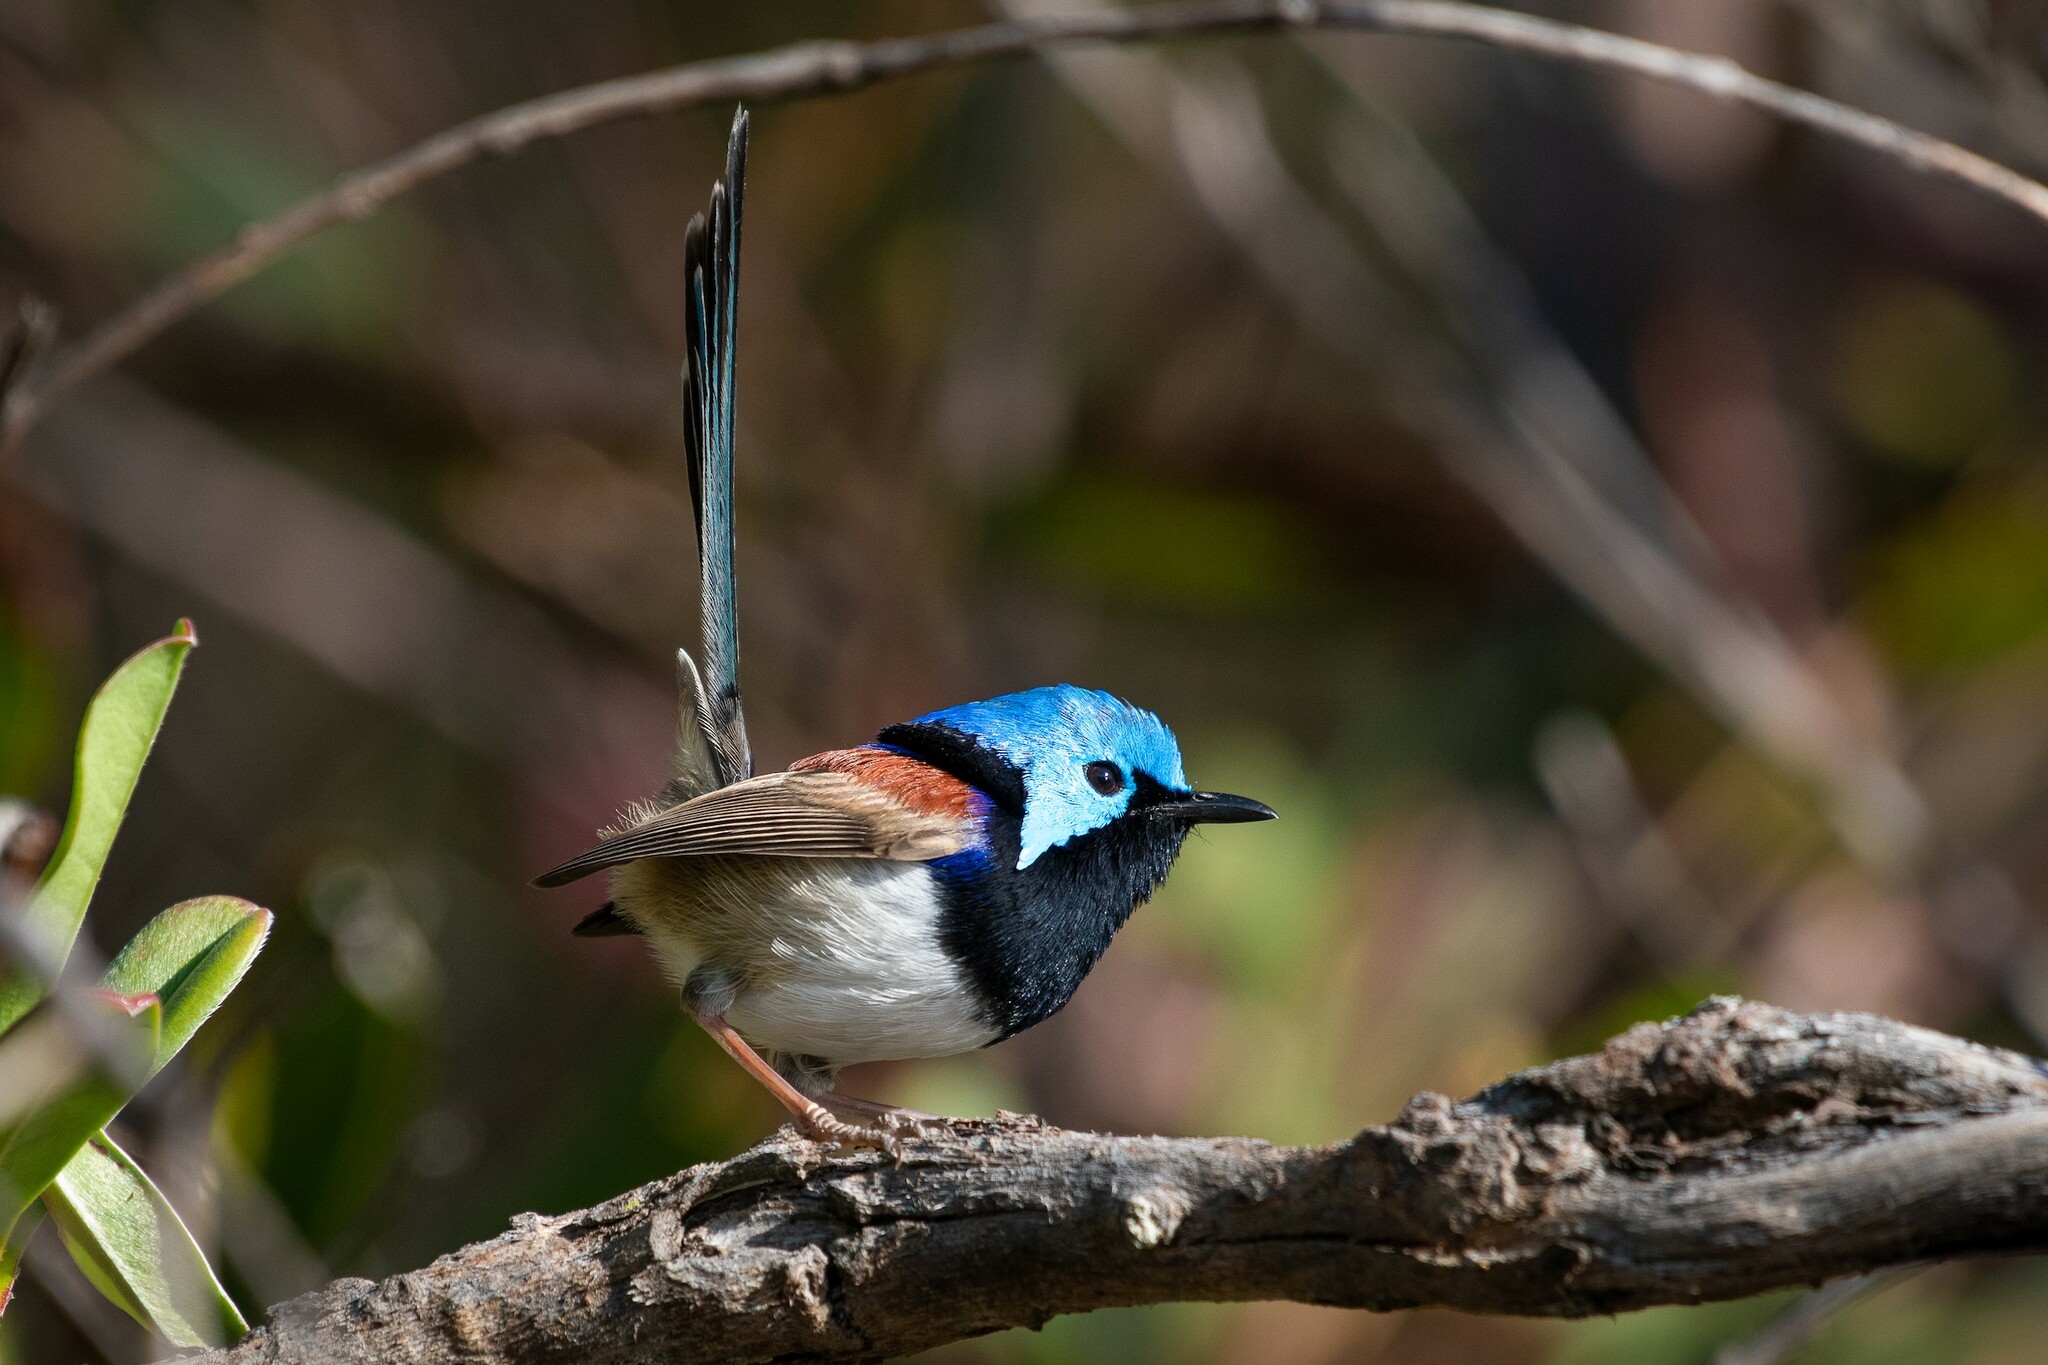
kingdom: Animalia
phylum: Chordata
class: Aves
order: Passeriformes
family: Maluridae
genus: Malurus
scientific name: Malurus lamberti
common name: Variegated fairywren
